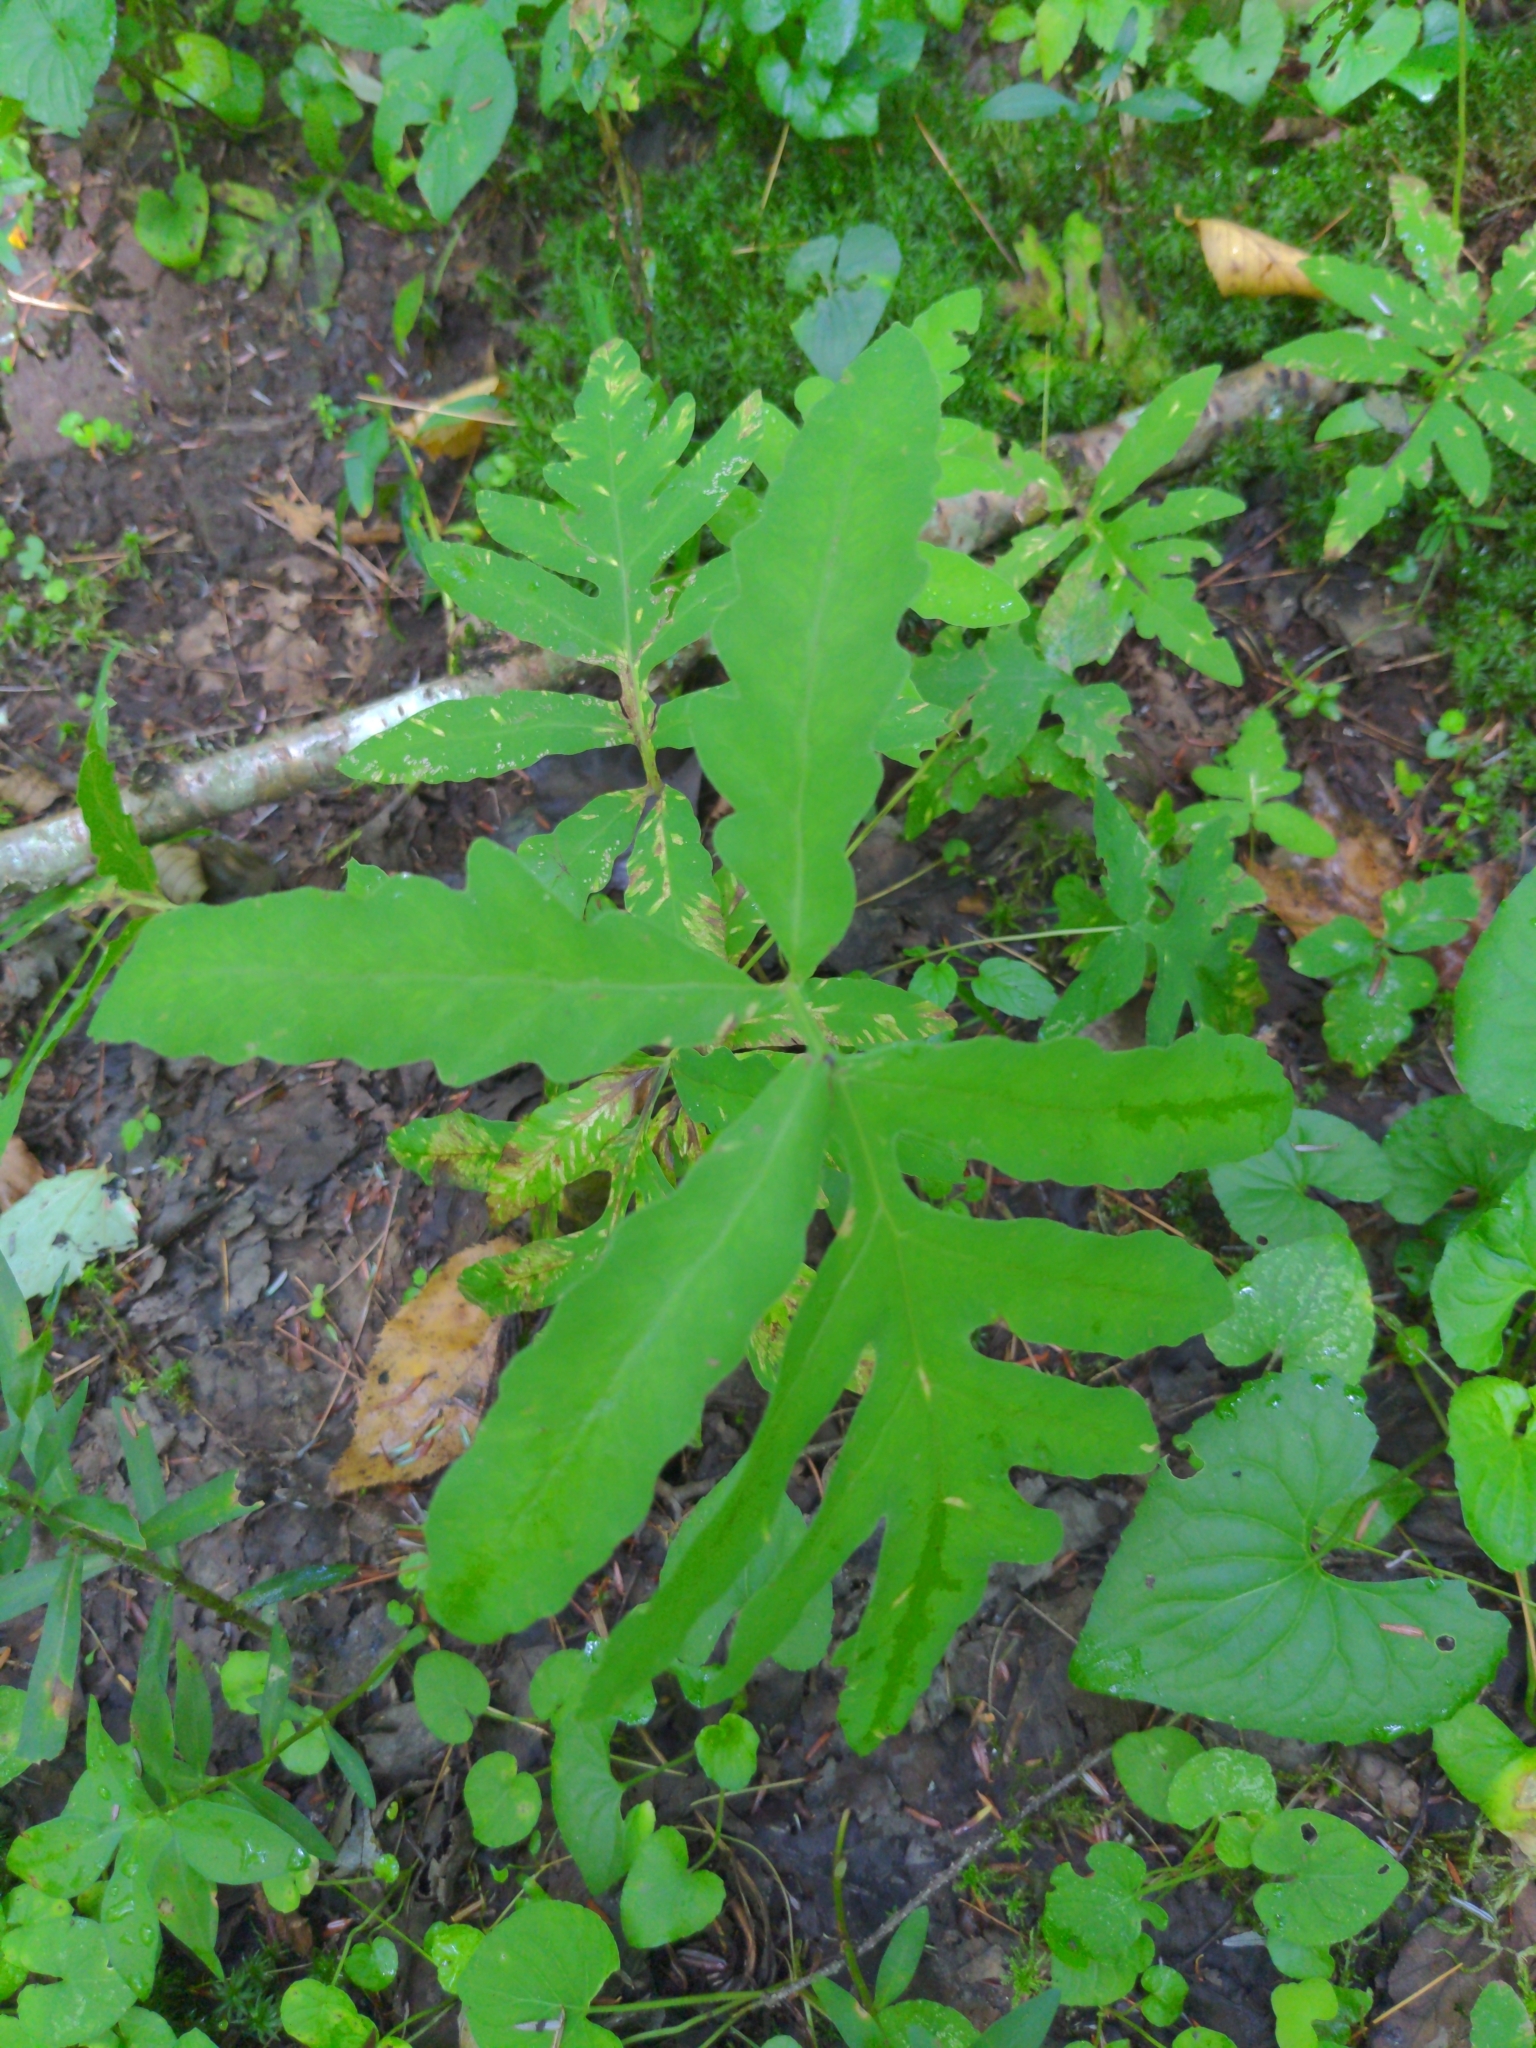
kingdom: Plantae
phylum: Tracheophyta
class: Polypodiopsida
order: Polypodiales
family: Onocleaceae
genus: Onoclea
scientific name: Onoclea sensibilis
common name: Sensitive fern
